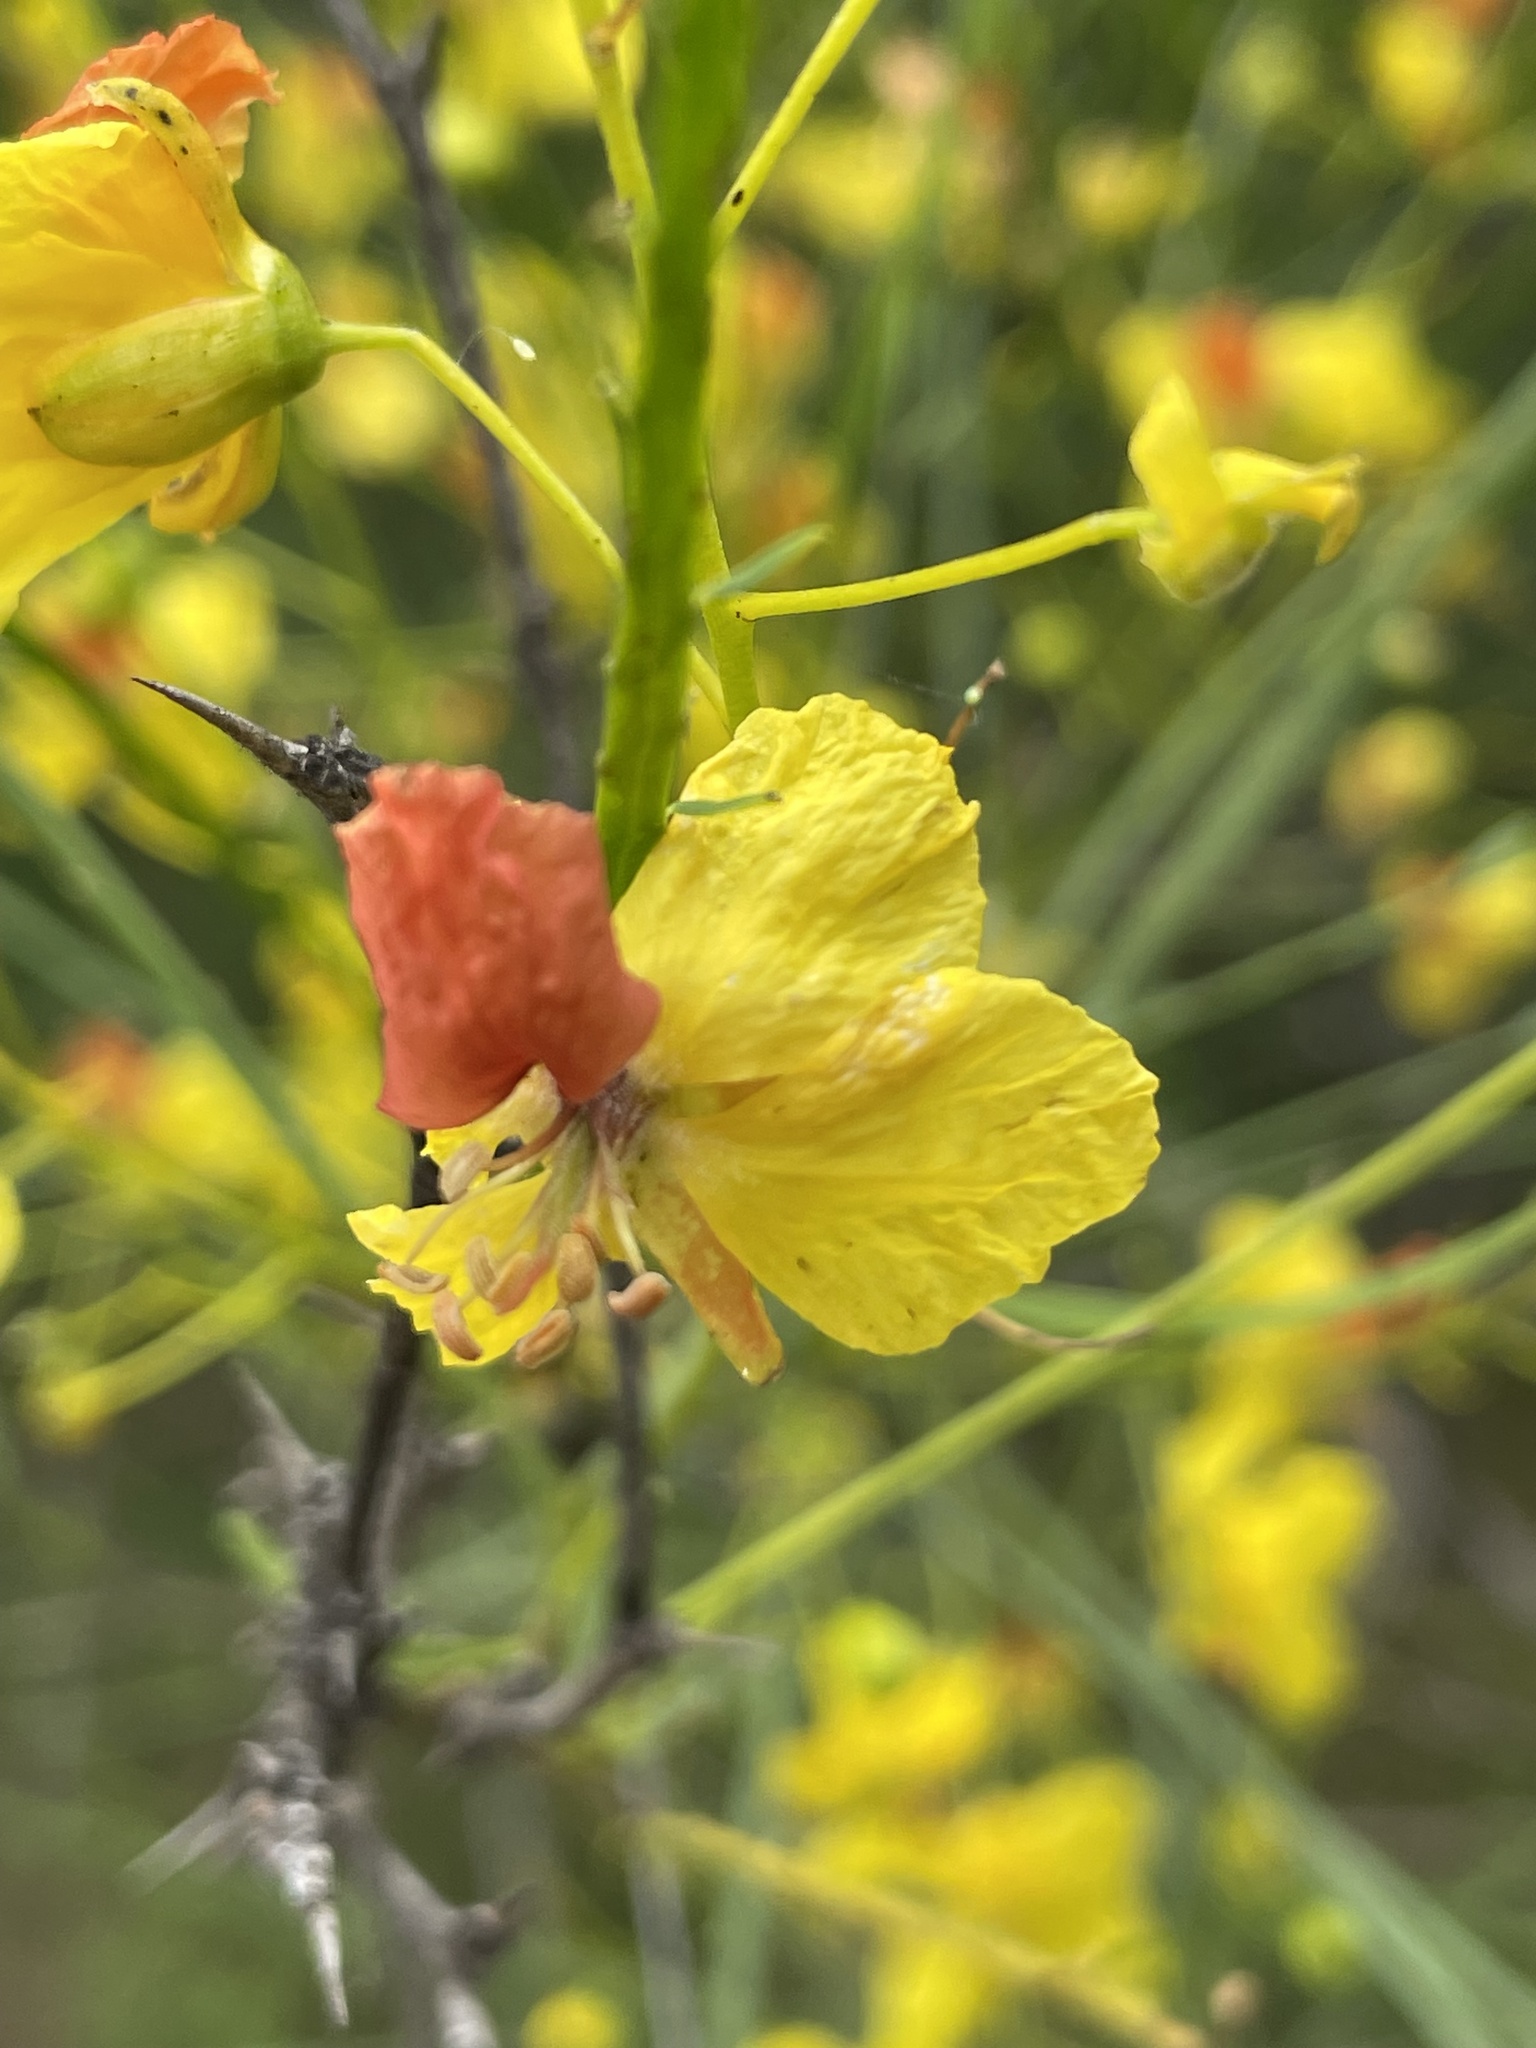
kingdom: Plantae
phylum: Tracheophyta
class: Magnoliopsida
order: Fabales
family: Fabaceae
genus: Parkinsonia
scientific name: Parkinsonia aculeata
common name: Jerusalem thorn
